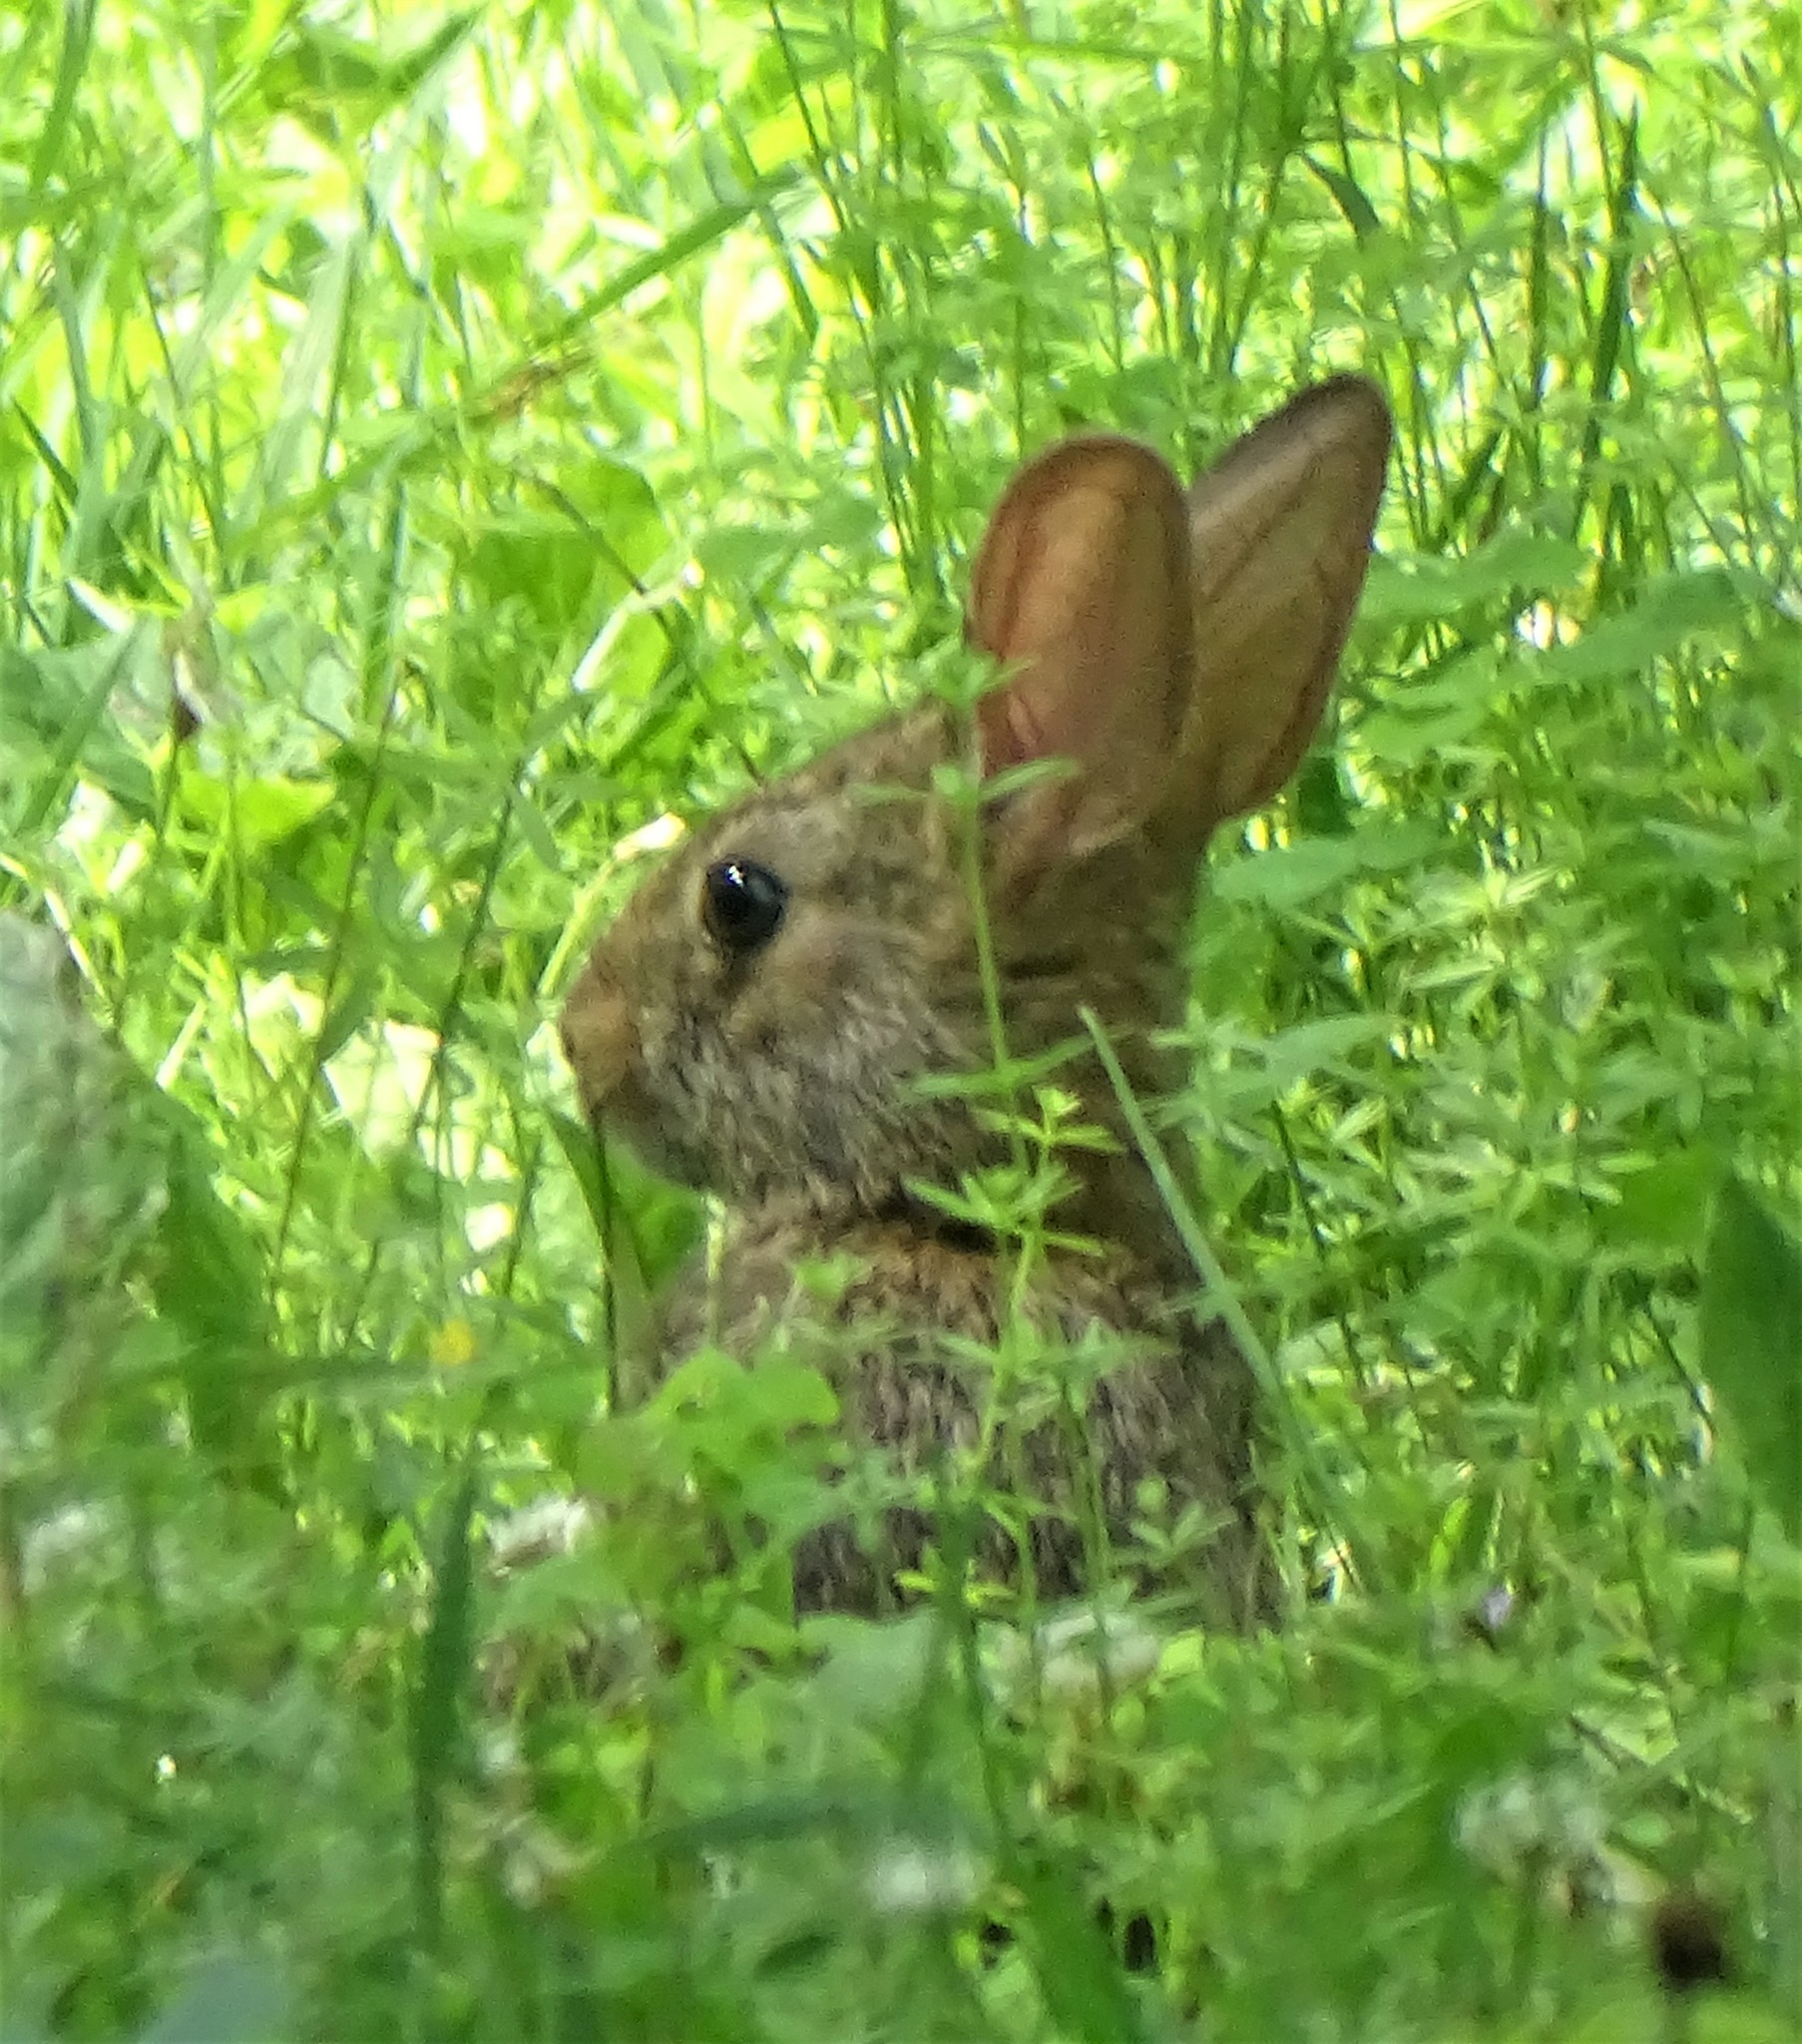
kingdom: Animalia
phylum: Chordata
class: Mammalia
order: Lagomorpha
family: Leporidae
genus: Sylvilagus
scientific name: Sylvilagus floridanus
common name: Eastern cottontail
